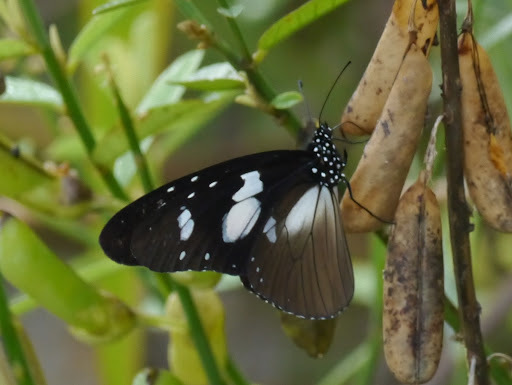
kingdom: Animalia
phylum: Arthropoda
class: Insecta
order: Lepidoptera
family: Nymphalidae
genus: Amauris
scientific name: Amauris hecate
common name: Scarce monk
